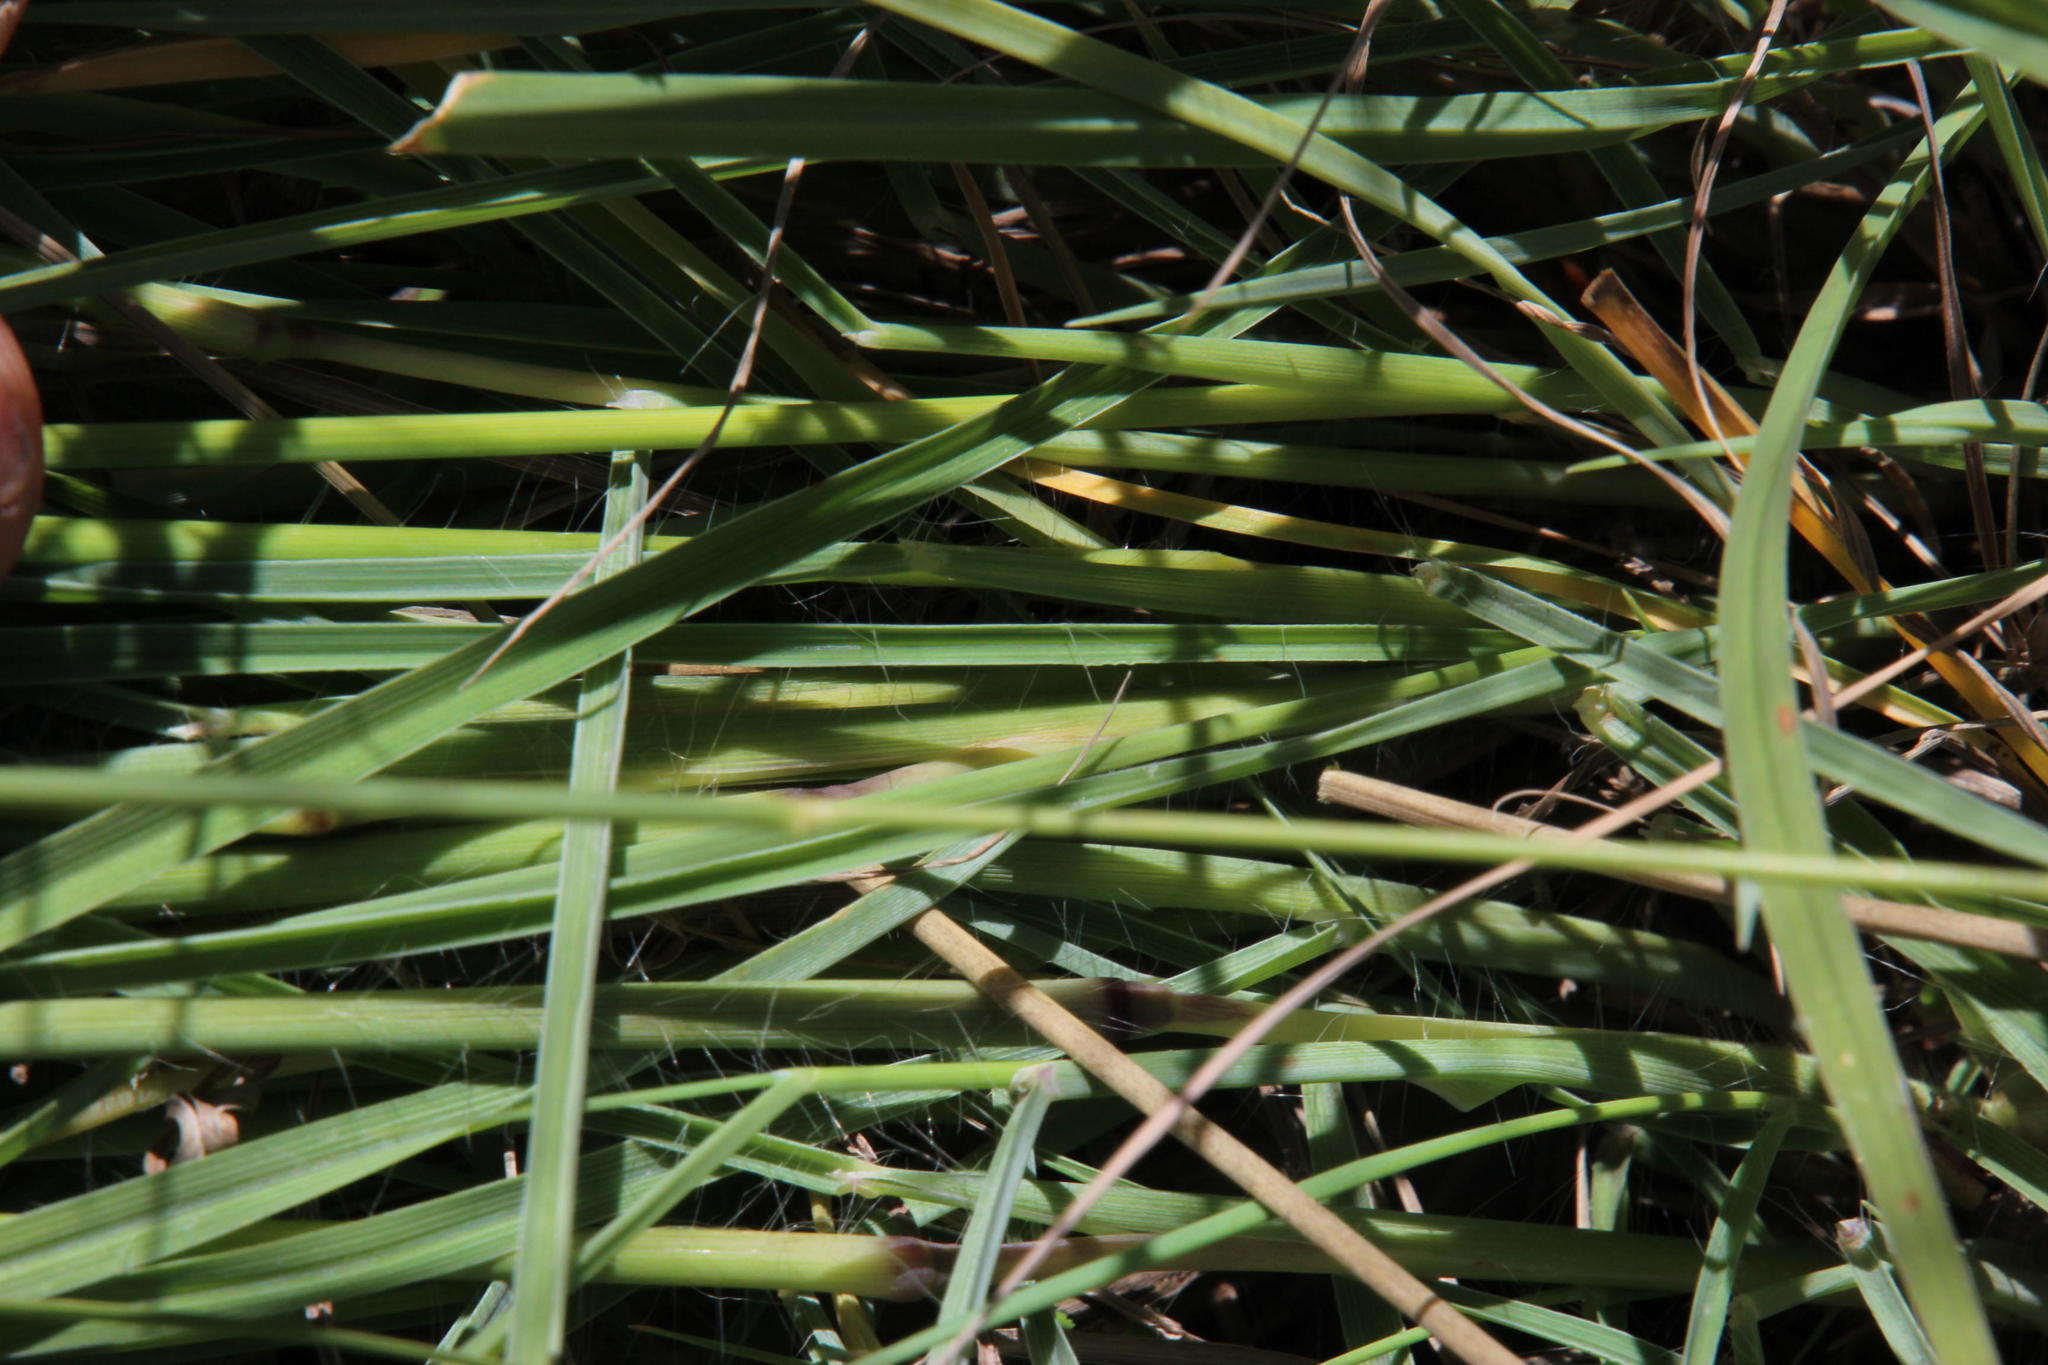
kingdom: Plantae
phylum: Tracheophyta
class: Liliopsida
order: Poales
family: Poaceae
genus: Digitaria
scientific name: Digitaria eriantha
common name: Digitgrass
